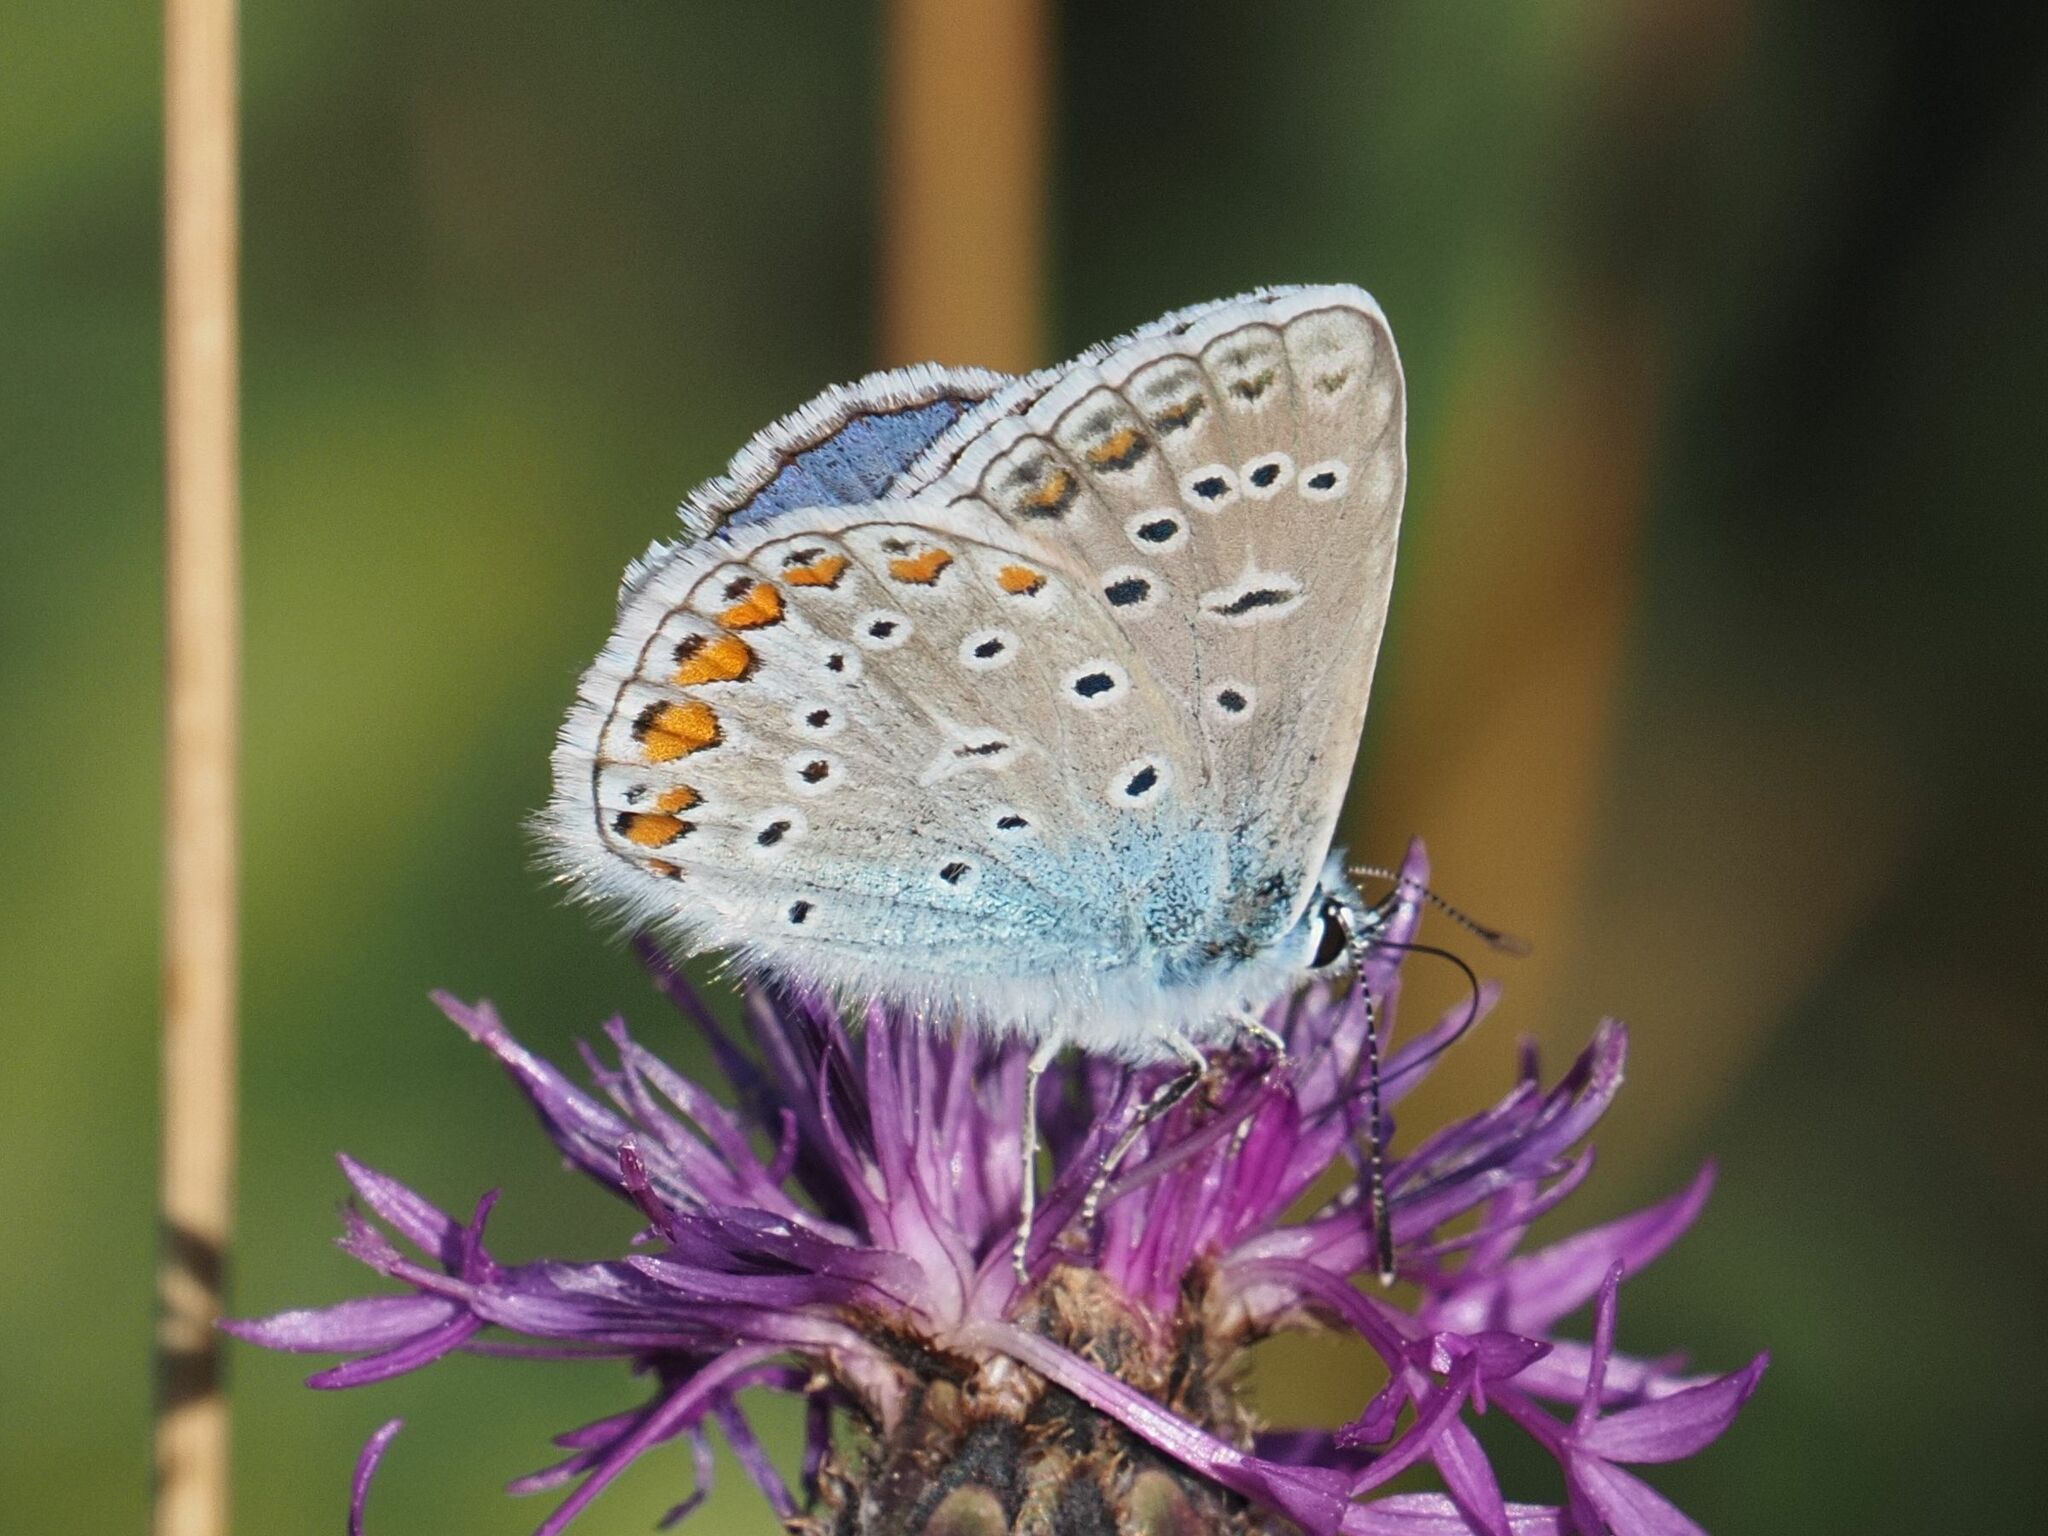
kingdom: Animalia
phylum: Arthropoda
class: Insecta
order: Lepidoptera
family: Lycaenidae
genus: Polyommatus
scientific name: Polyommatus icarus
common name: Common blue
